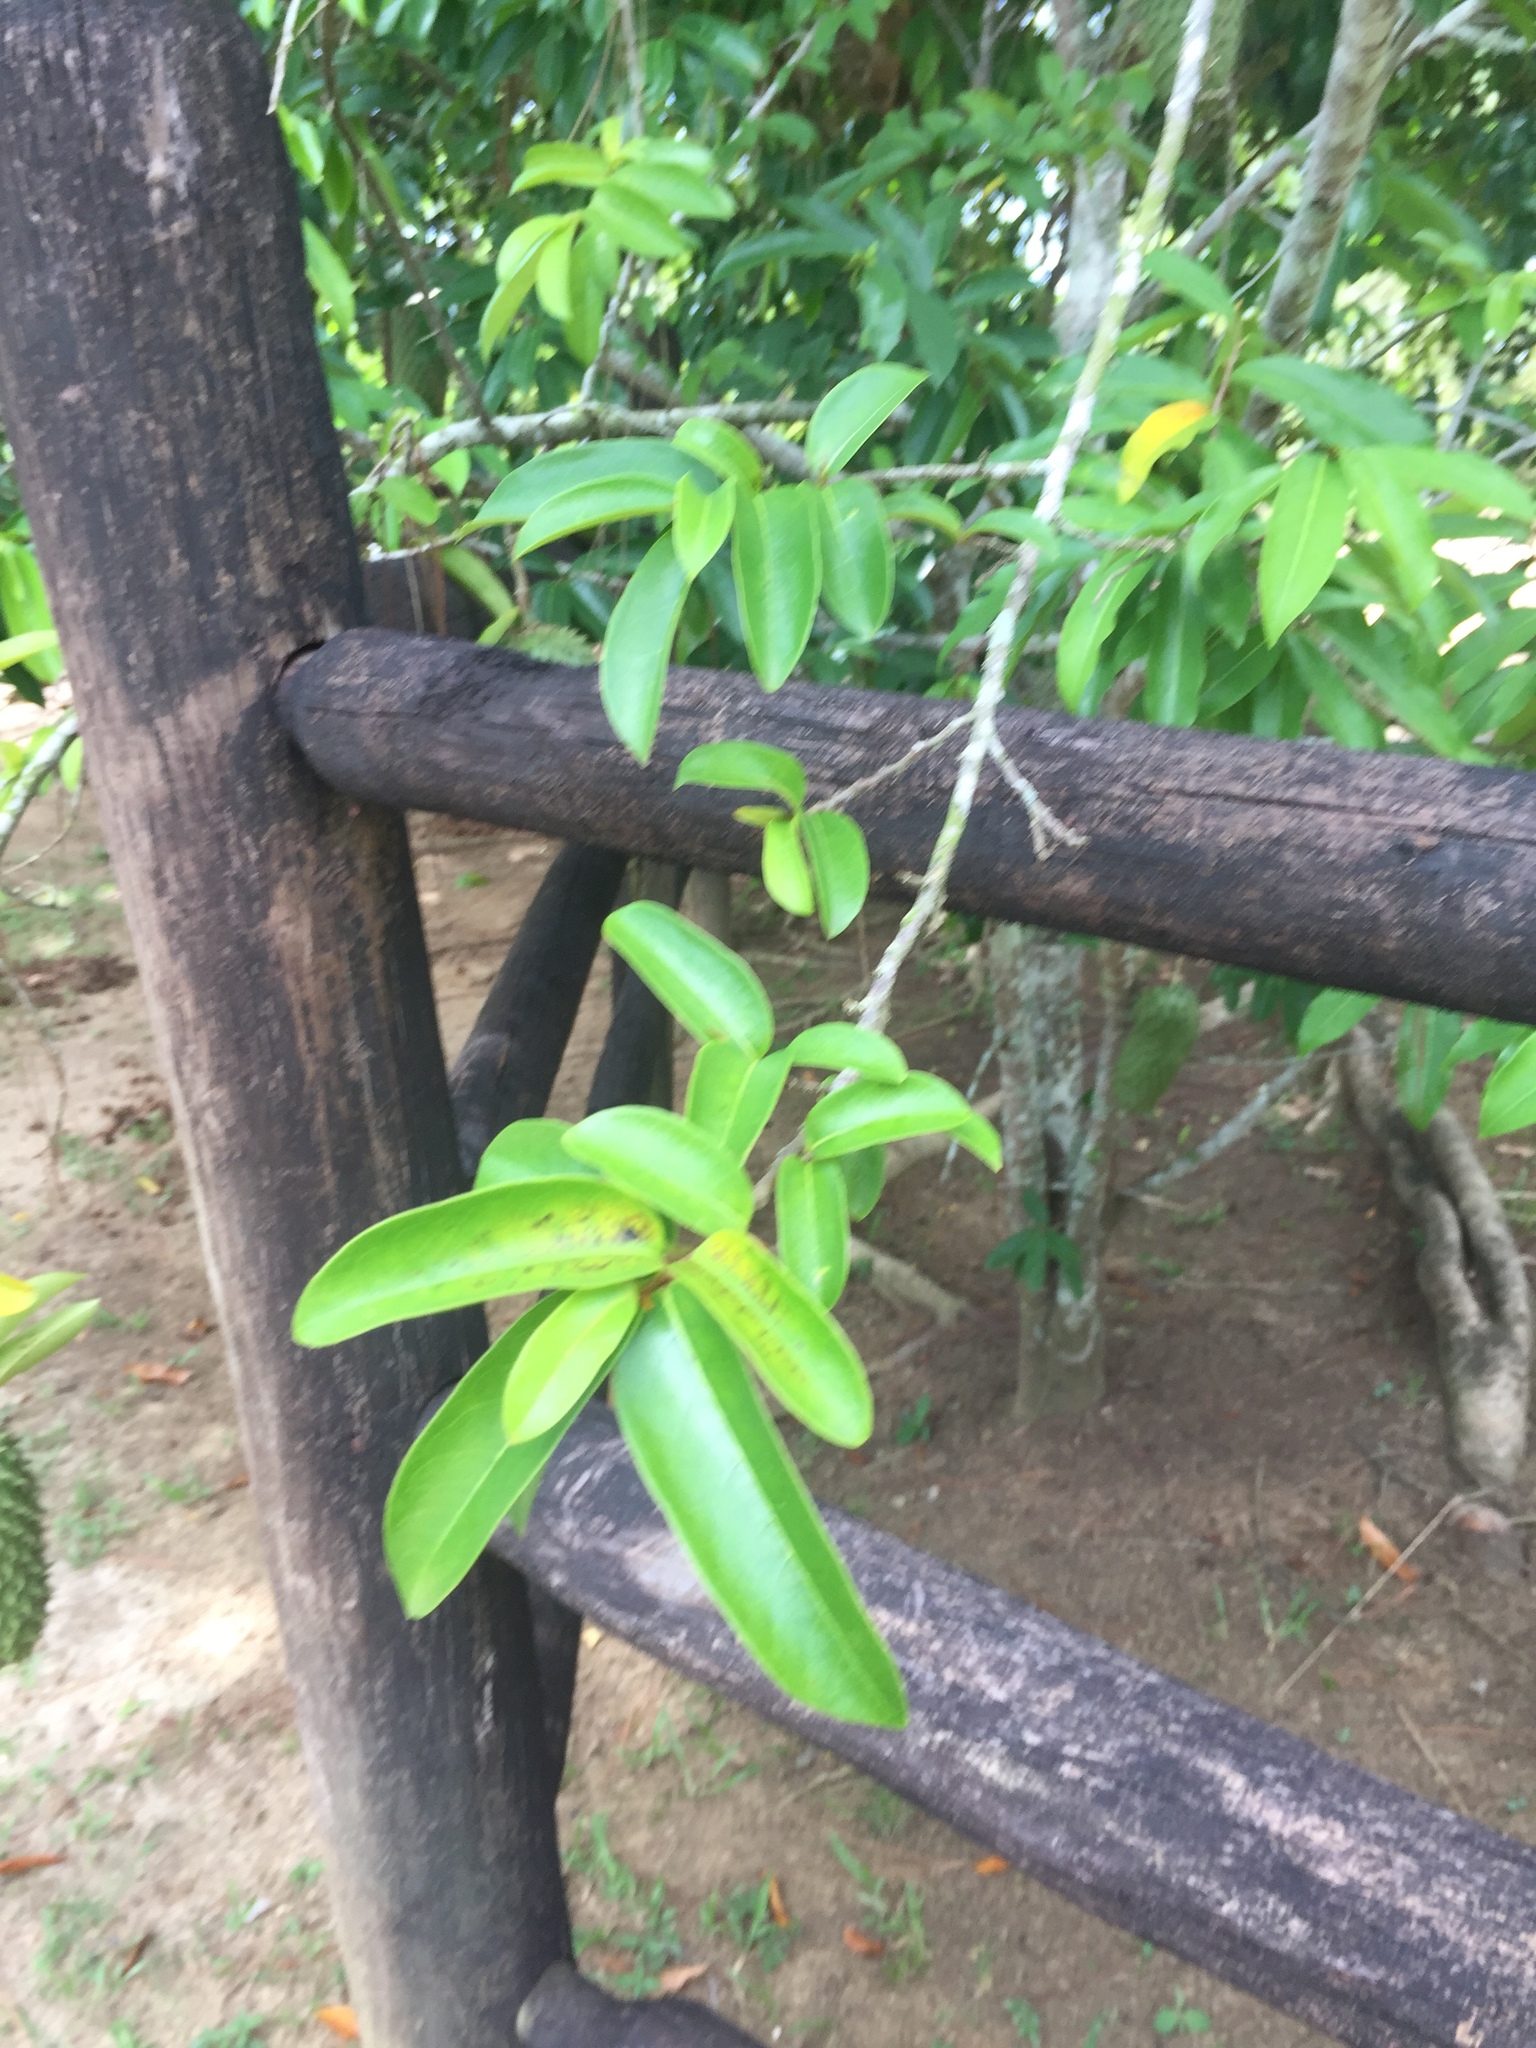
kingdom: Plantae
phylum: Tracheophyta
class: Magnoliopsida
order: Magnoliales
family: Annonaceae
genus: Annona
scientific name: Annona muricata
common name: Soursop
